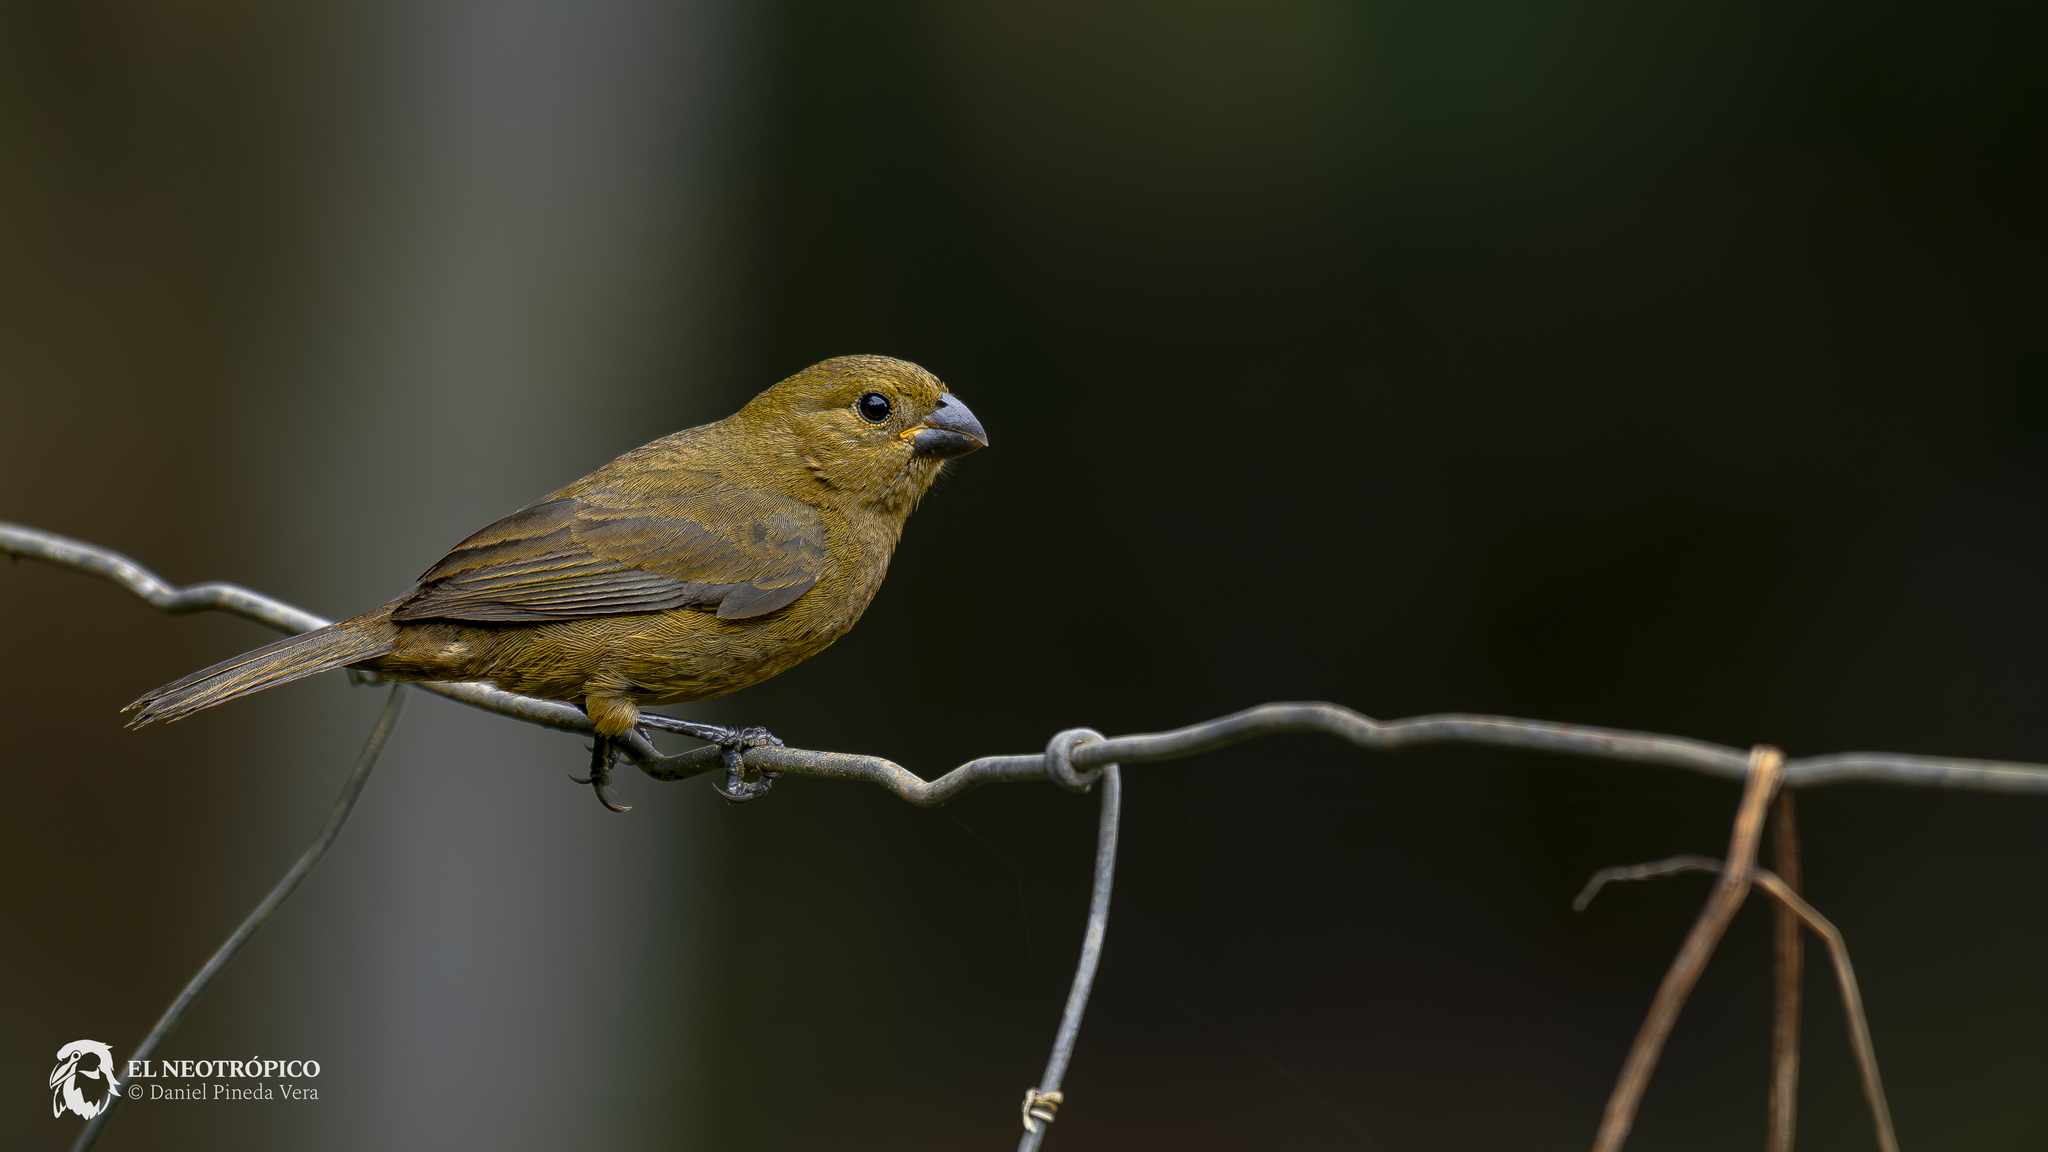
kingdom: Animalia
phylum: Chordata
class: Aves
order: Passeriformes
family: Thraupidae
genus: Sporophila
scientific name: Sporophila corvina
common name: Variable seedeater
